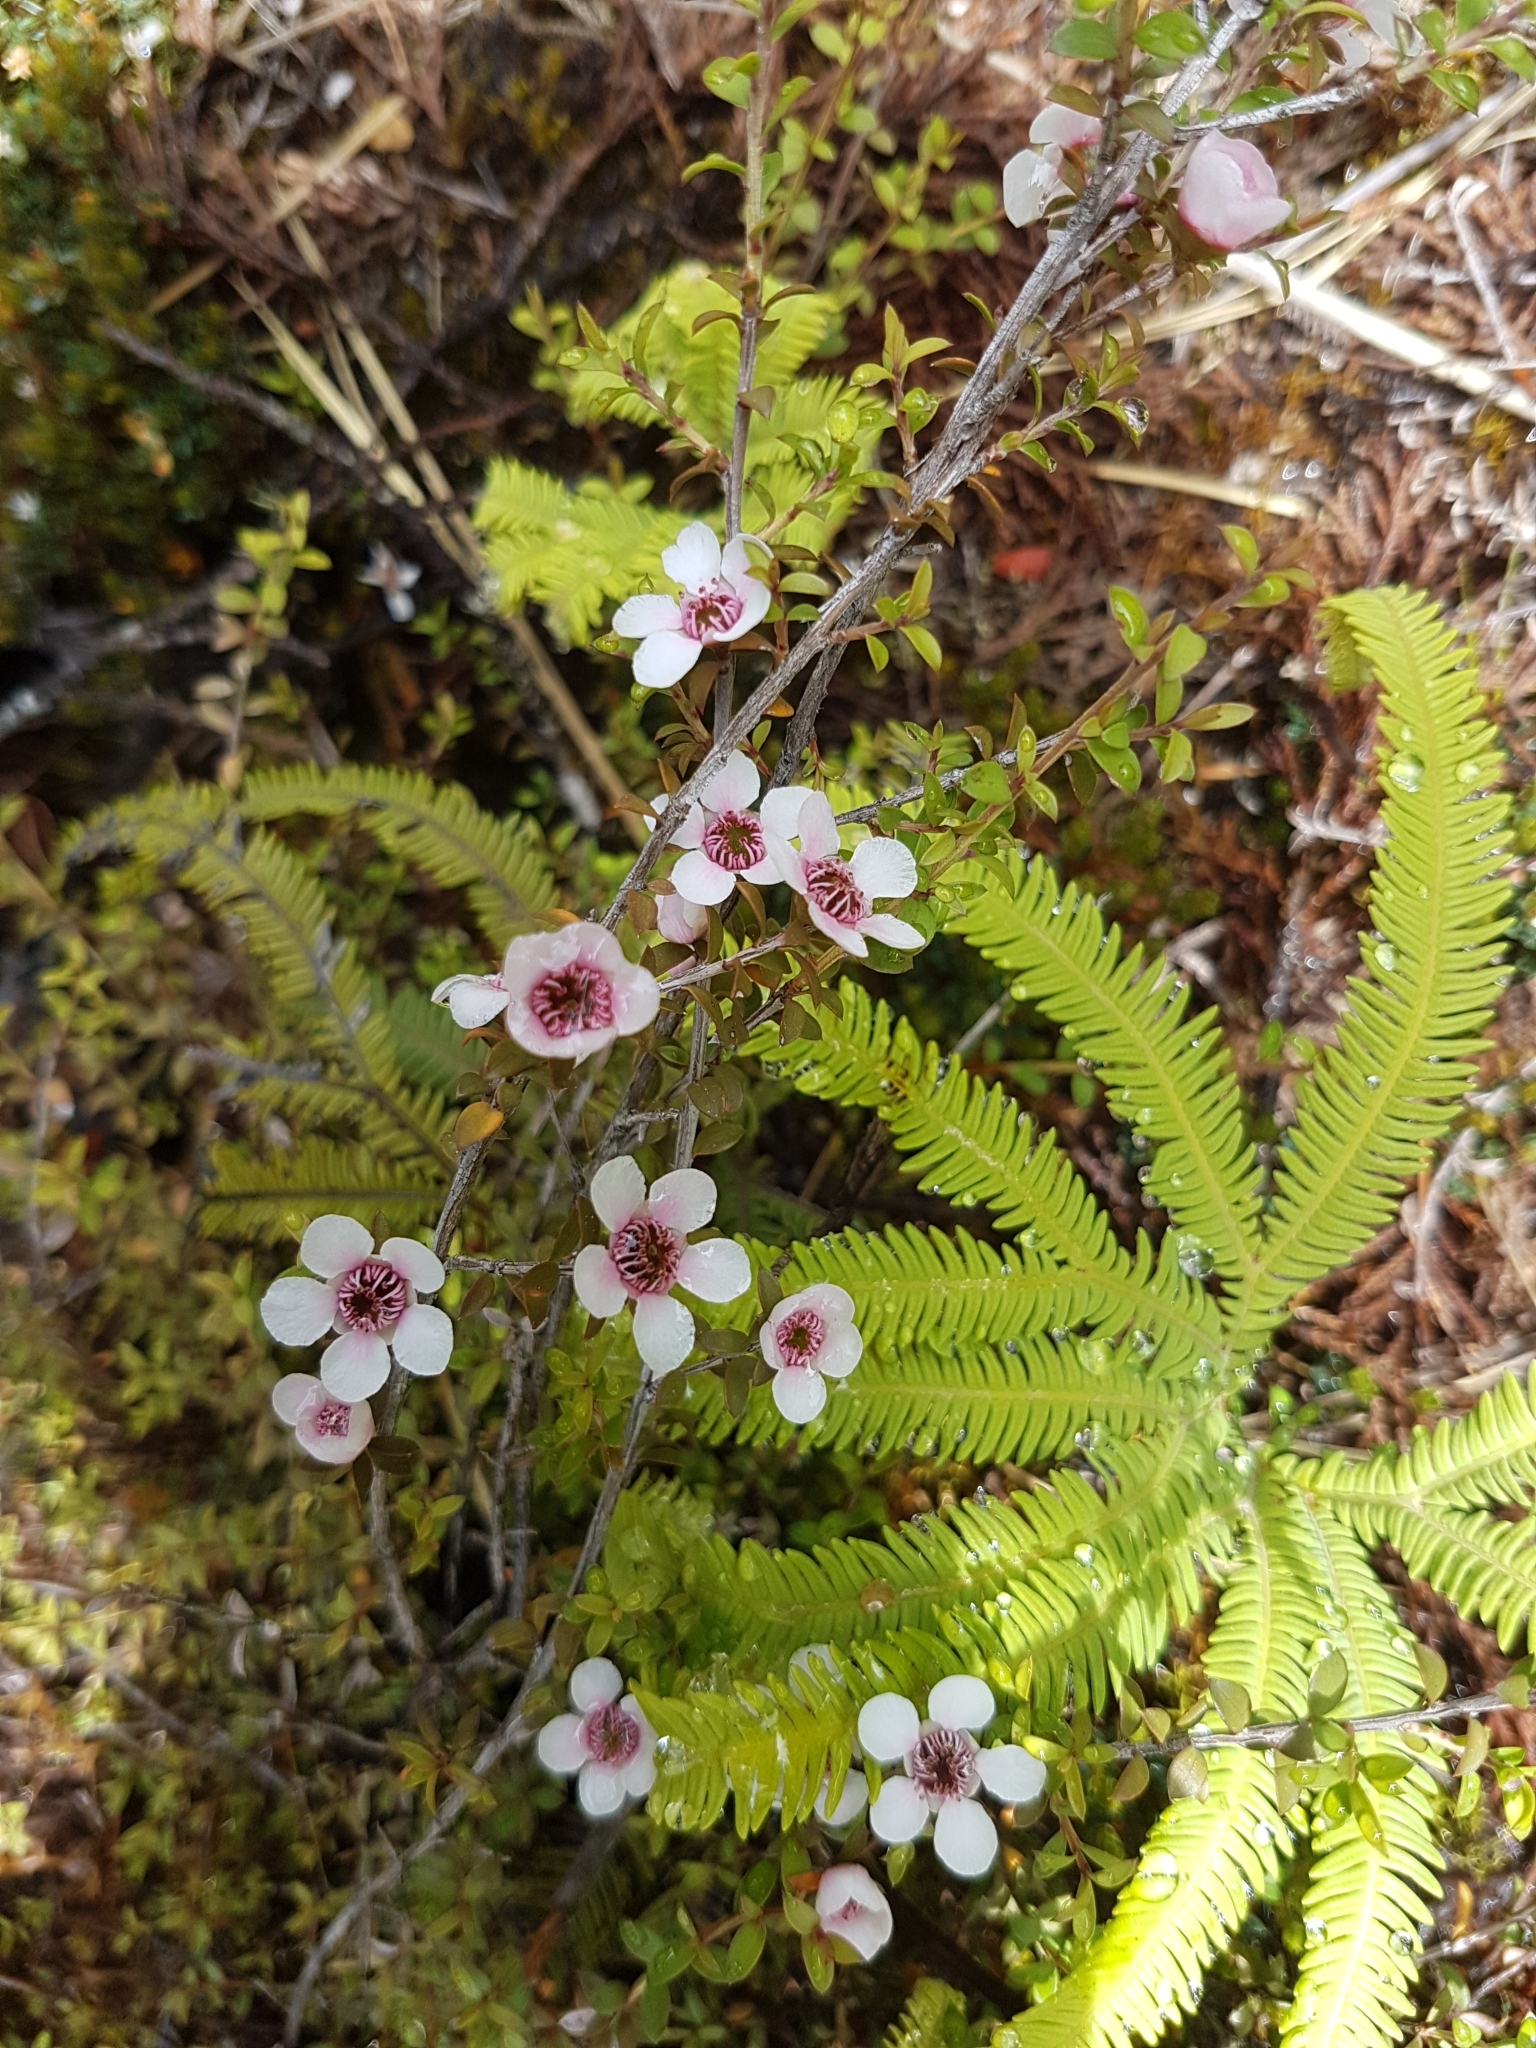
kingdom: Plantae
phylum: Tracheophyta
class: Magnoliopsida
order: Myrtales
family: Myrtaceae
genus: Leptospermum
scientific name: Leptospermum scoparium
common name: Broom tea-tree
